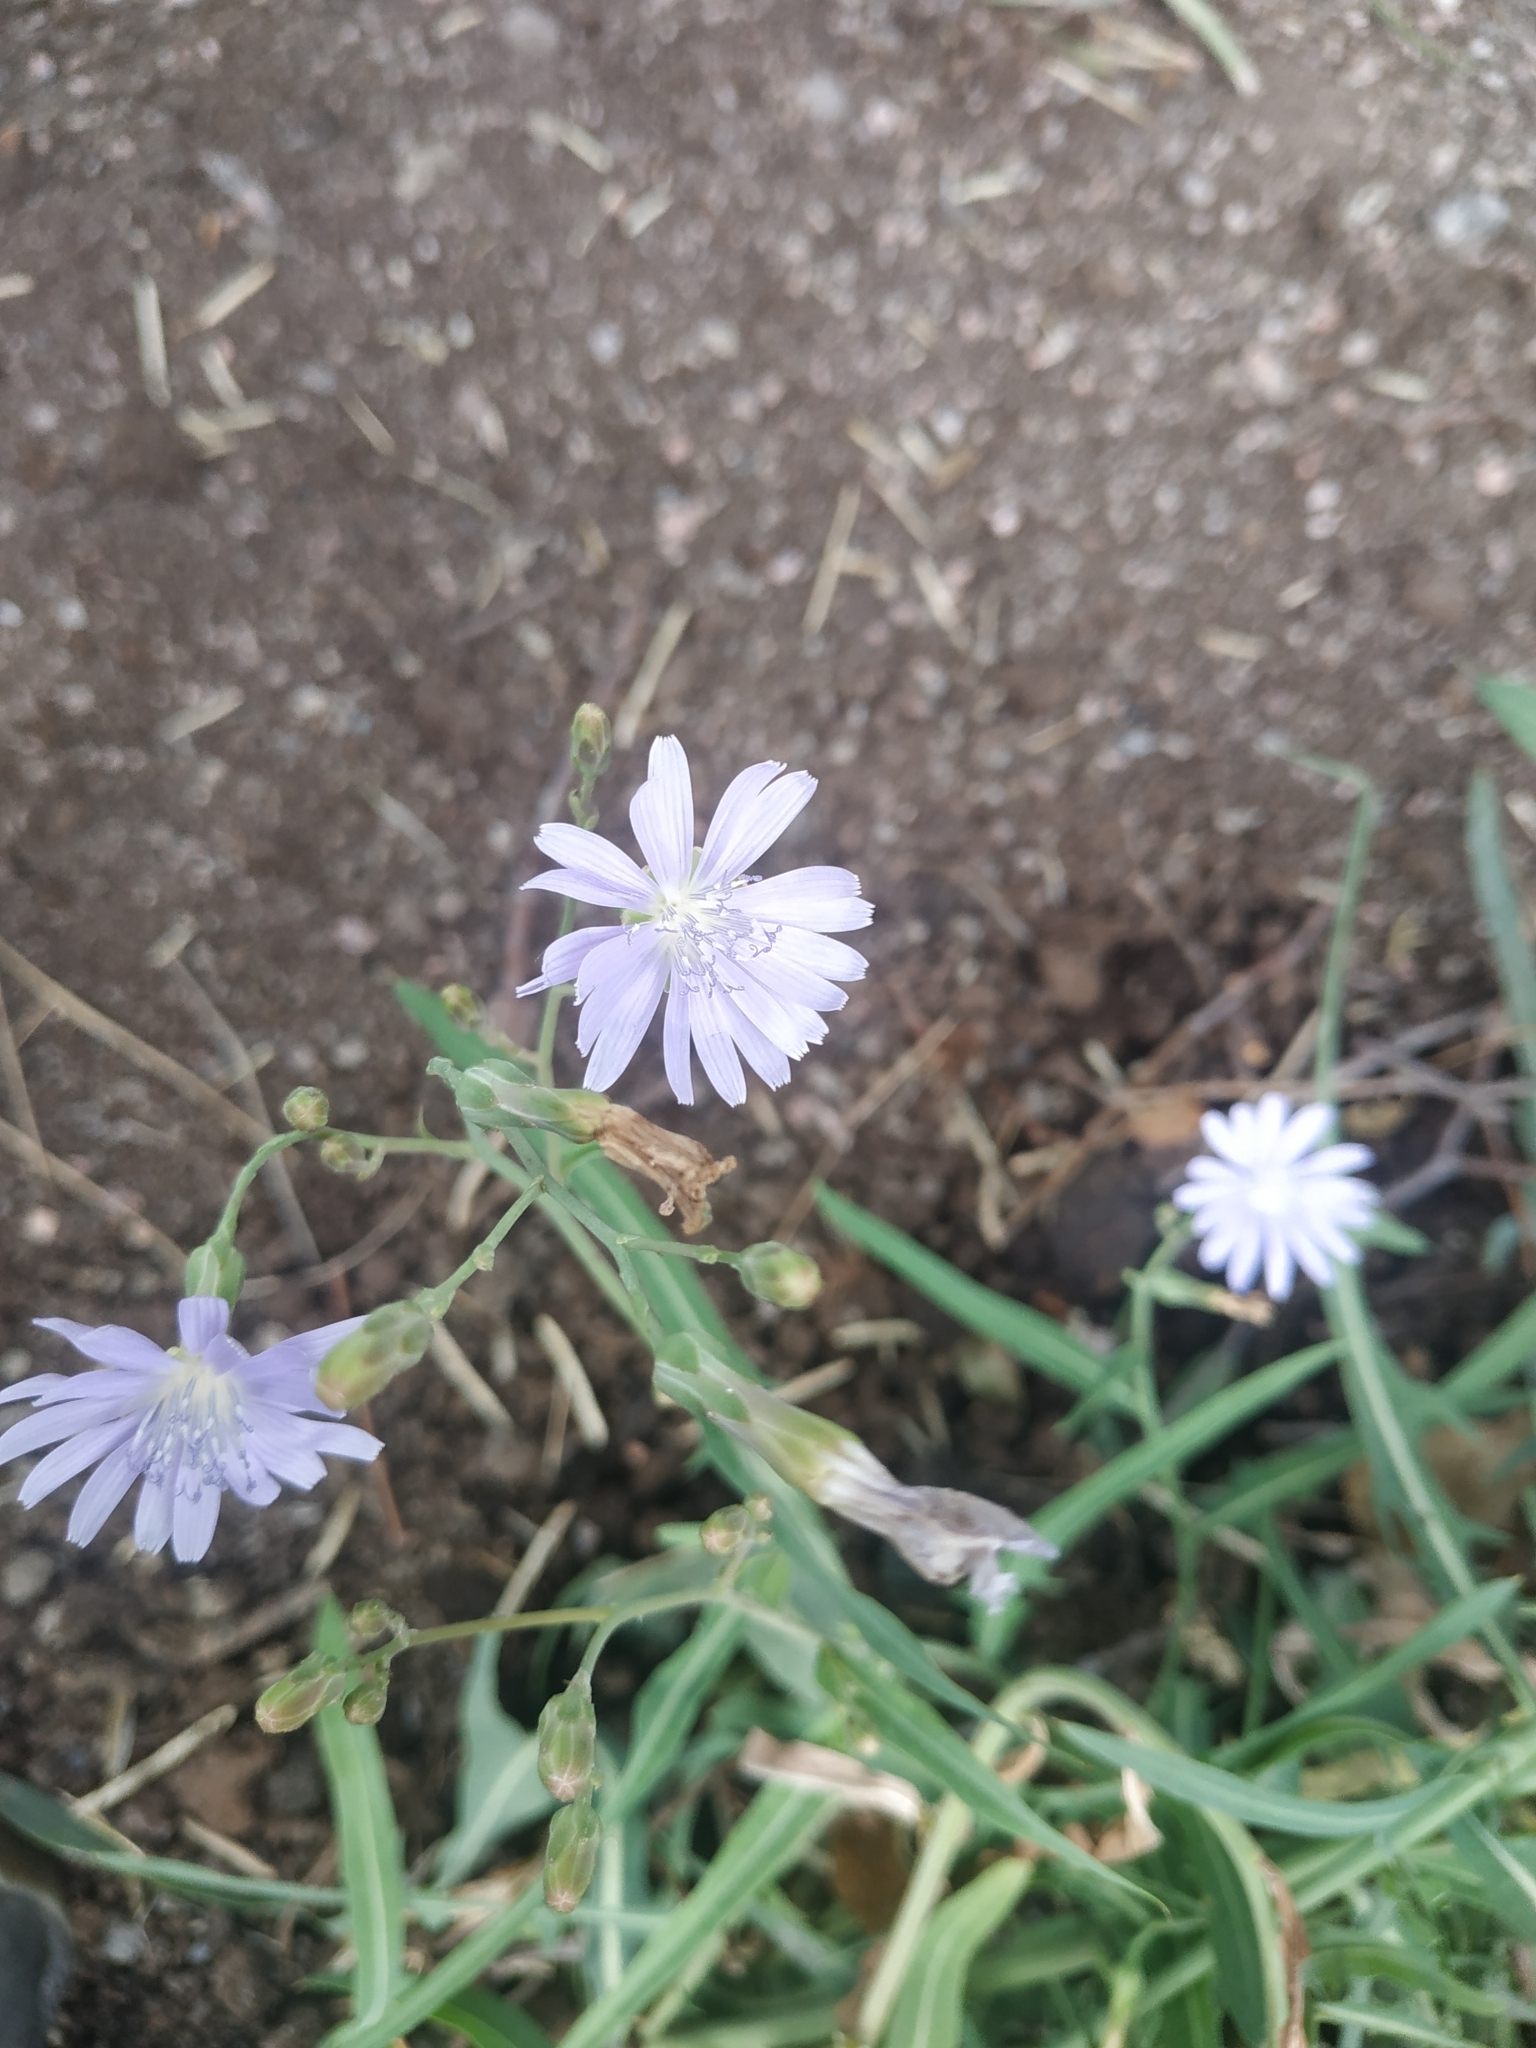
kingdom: Plantae
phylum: Tracheophyta
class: Magnoliopsida
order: Asterales
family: Asteraceae
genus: Lactuca
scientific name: Lactuca tatarica
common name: Blue lettuce
